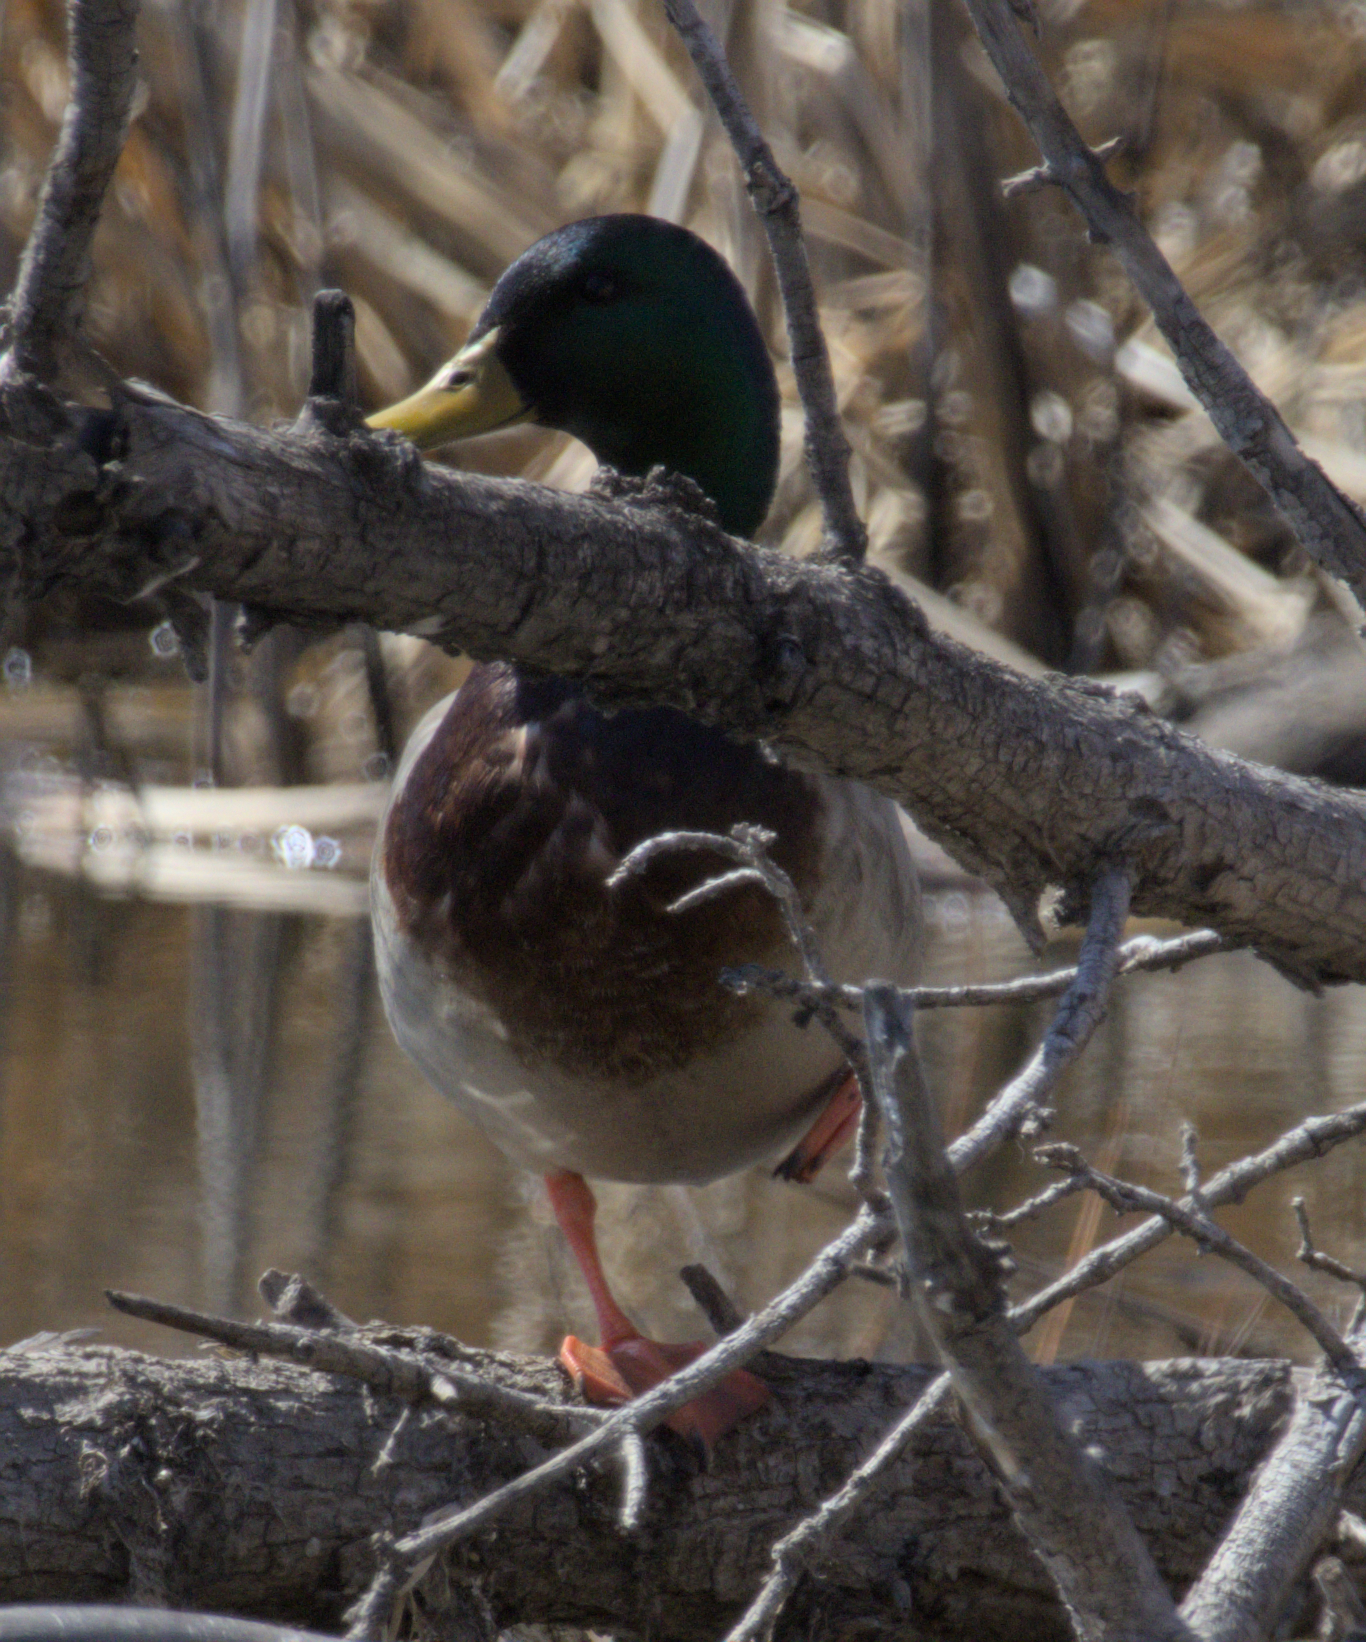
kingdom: Animalia
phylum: Chordata
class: Aves
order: Anseriformes
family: Anatidae
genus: Anas
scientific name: Anas platyrhynchos
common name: Mallard
